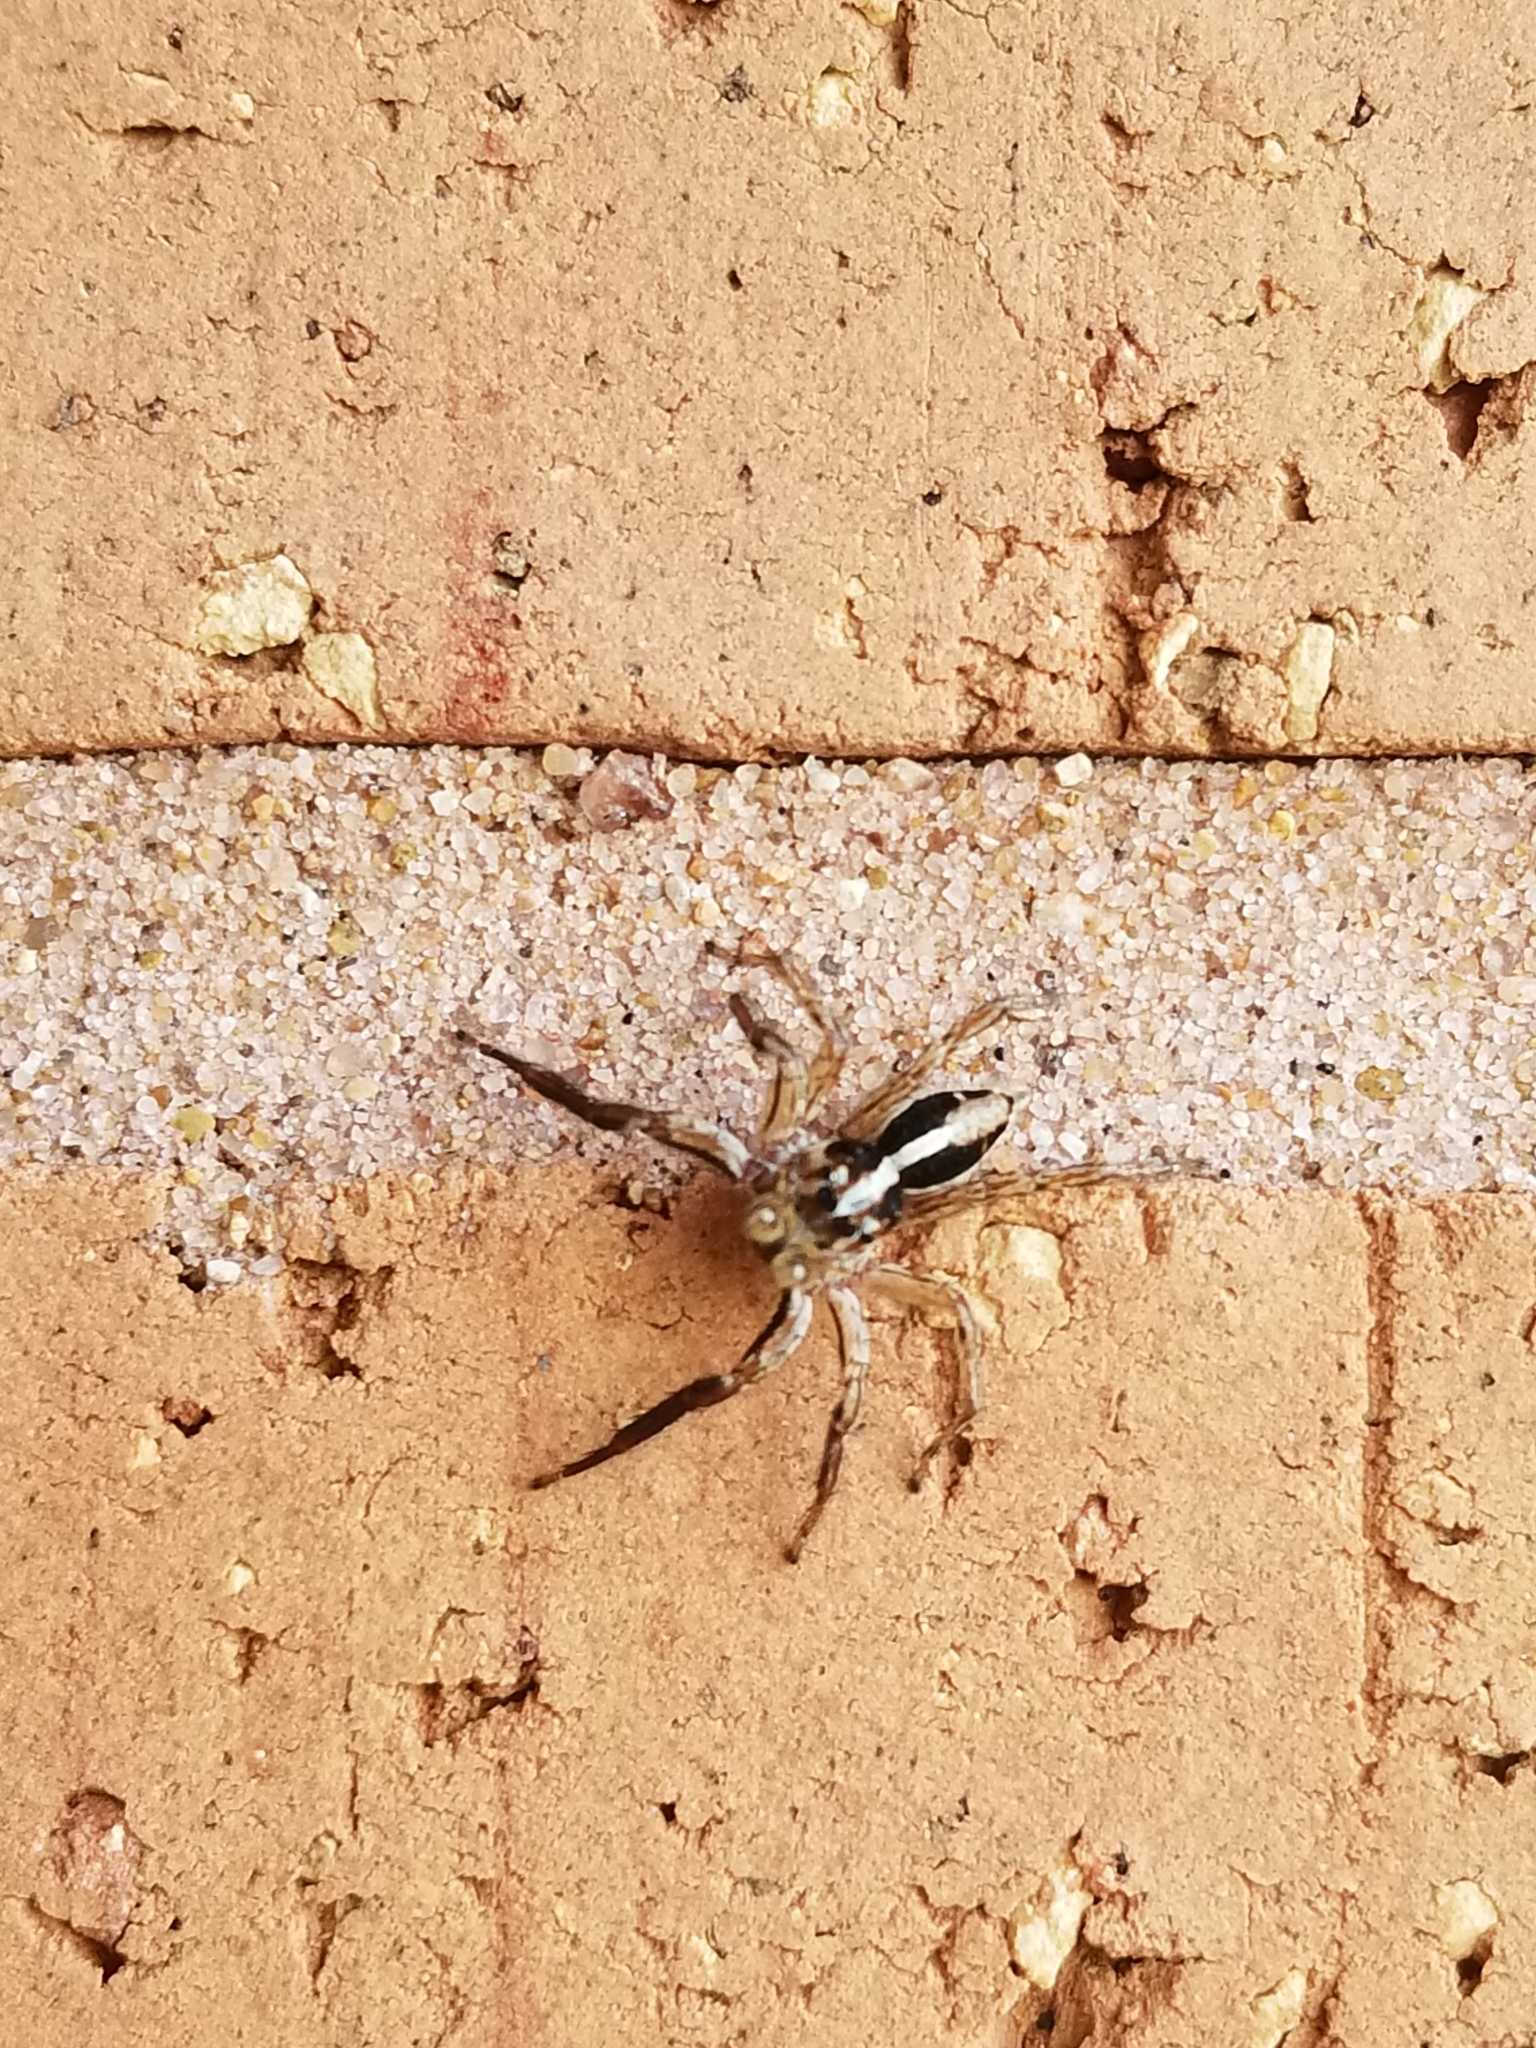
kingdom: Animalia
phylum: Arthropoda
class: Arachnida
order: Araneae
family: Salticidae
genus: Plexippus
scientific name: Plexippus paykulli
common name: Pantropical jumper
